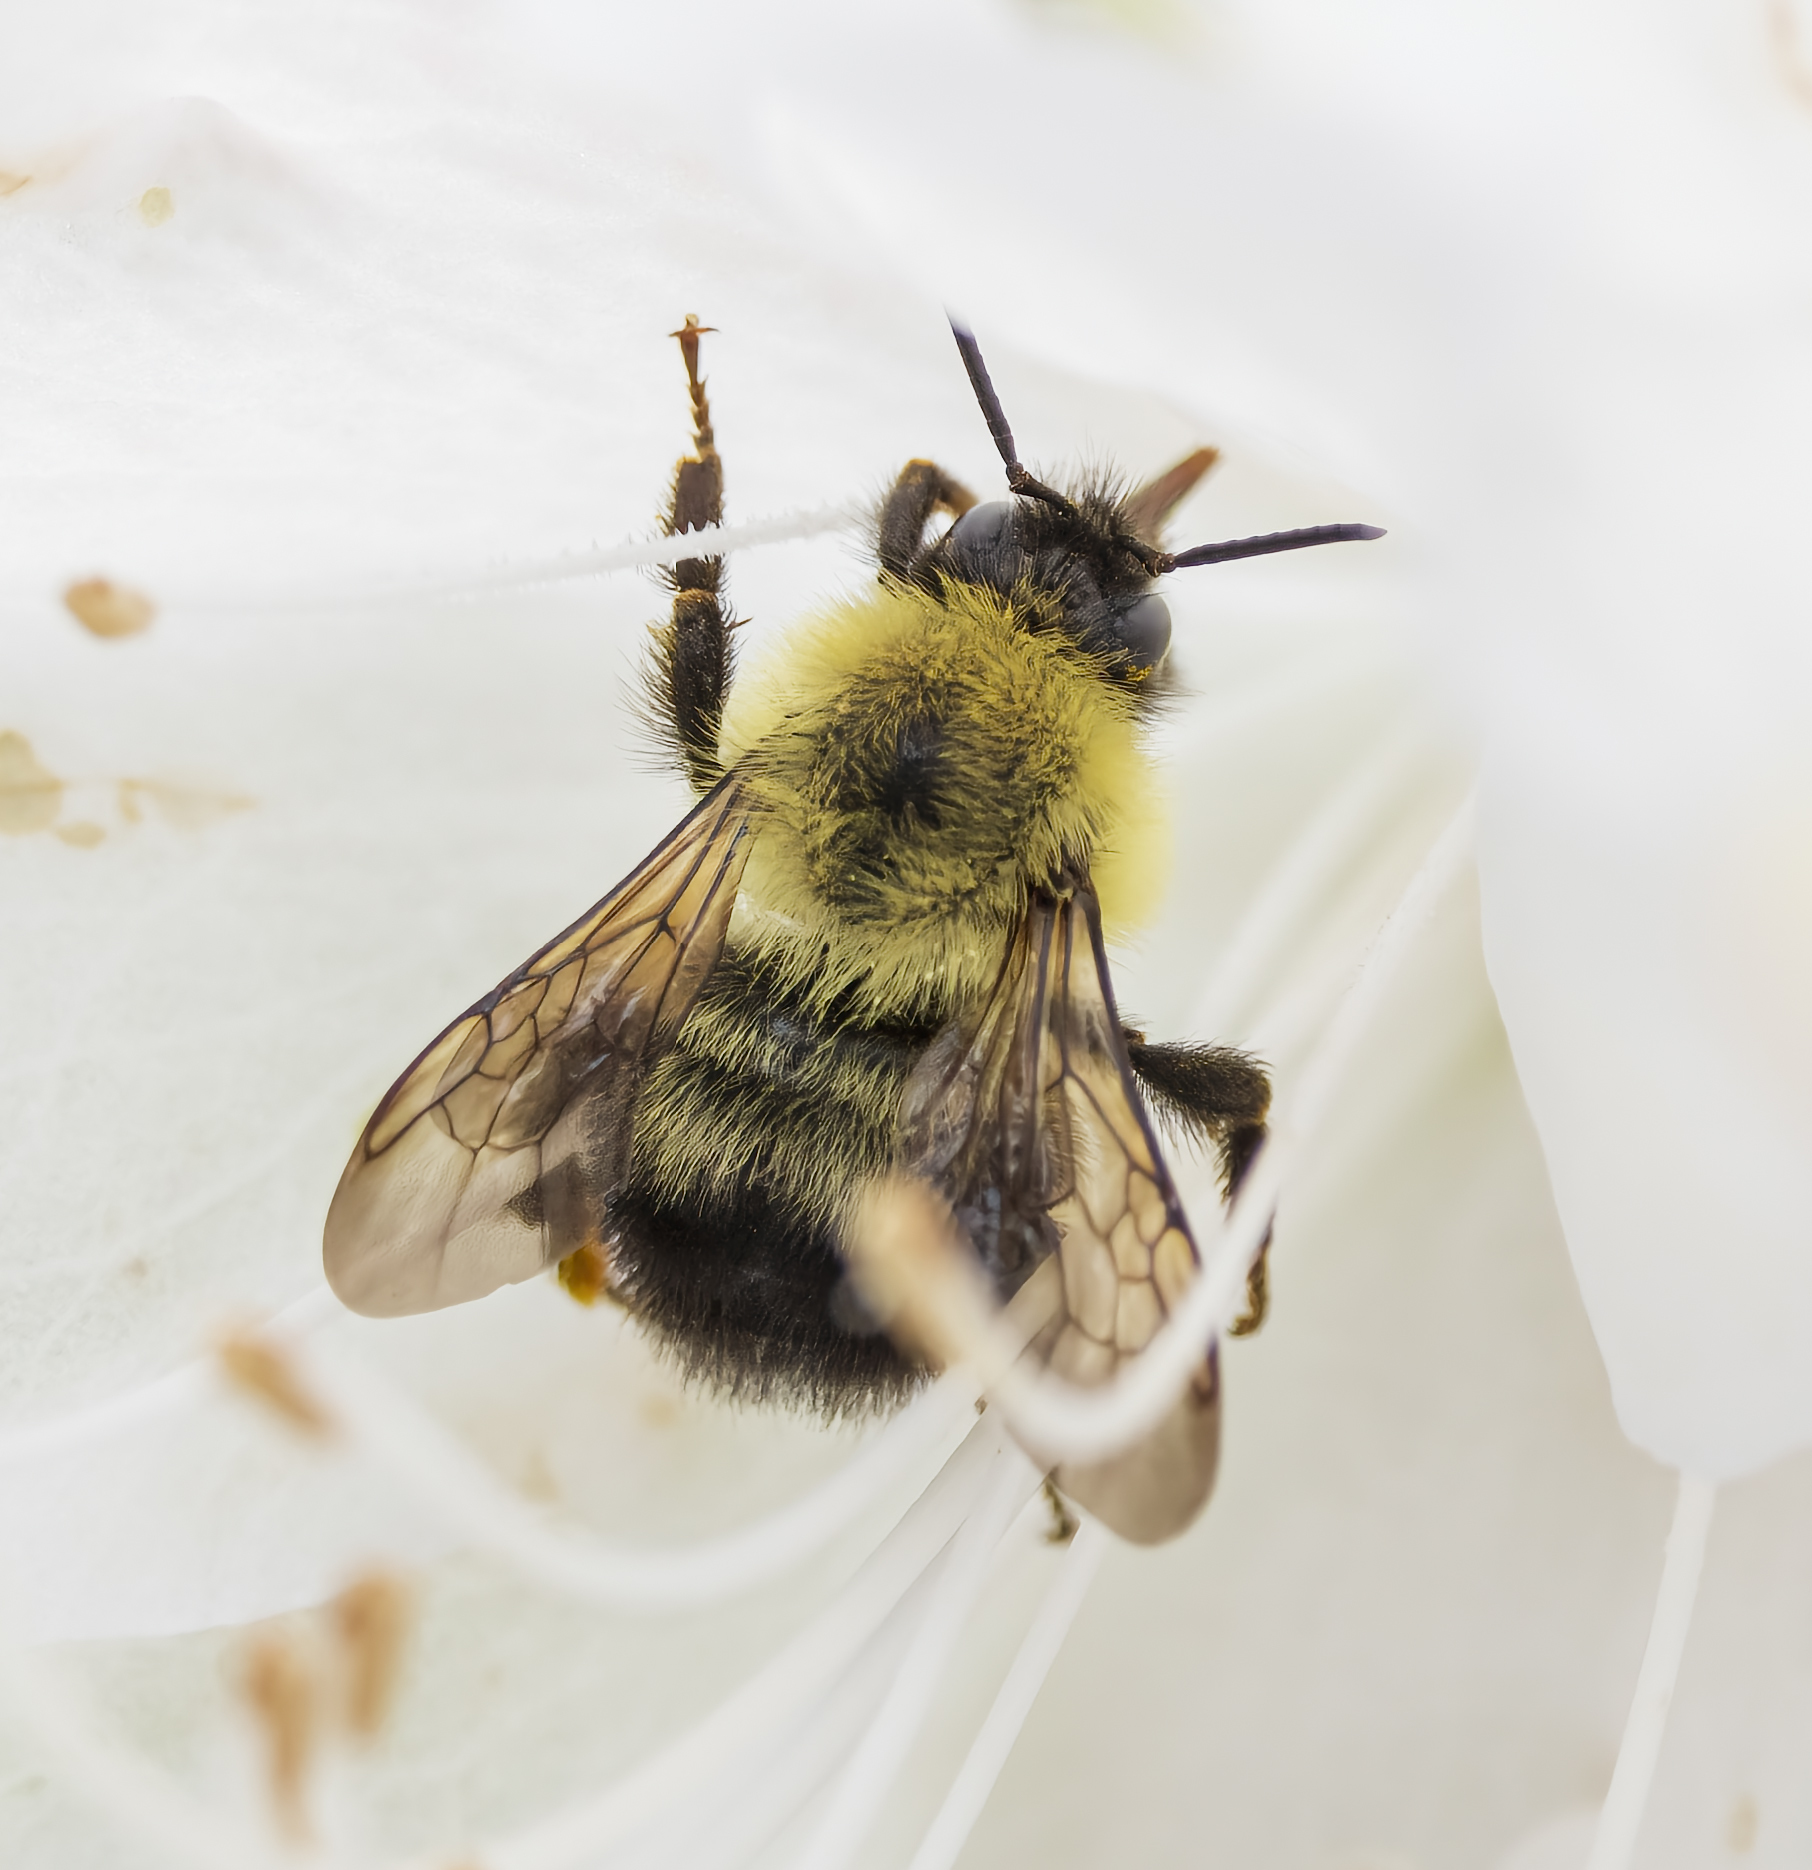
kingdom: Animalia
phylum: Arthropoda
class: Insecta
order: Hymenoptera
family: Apidae
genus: Bombus
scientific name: Bombus bimaculatus
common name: Two-spotted bumble bee
